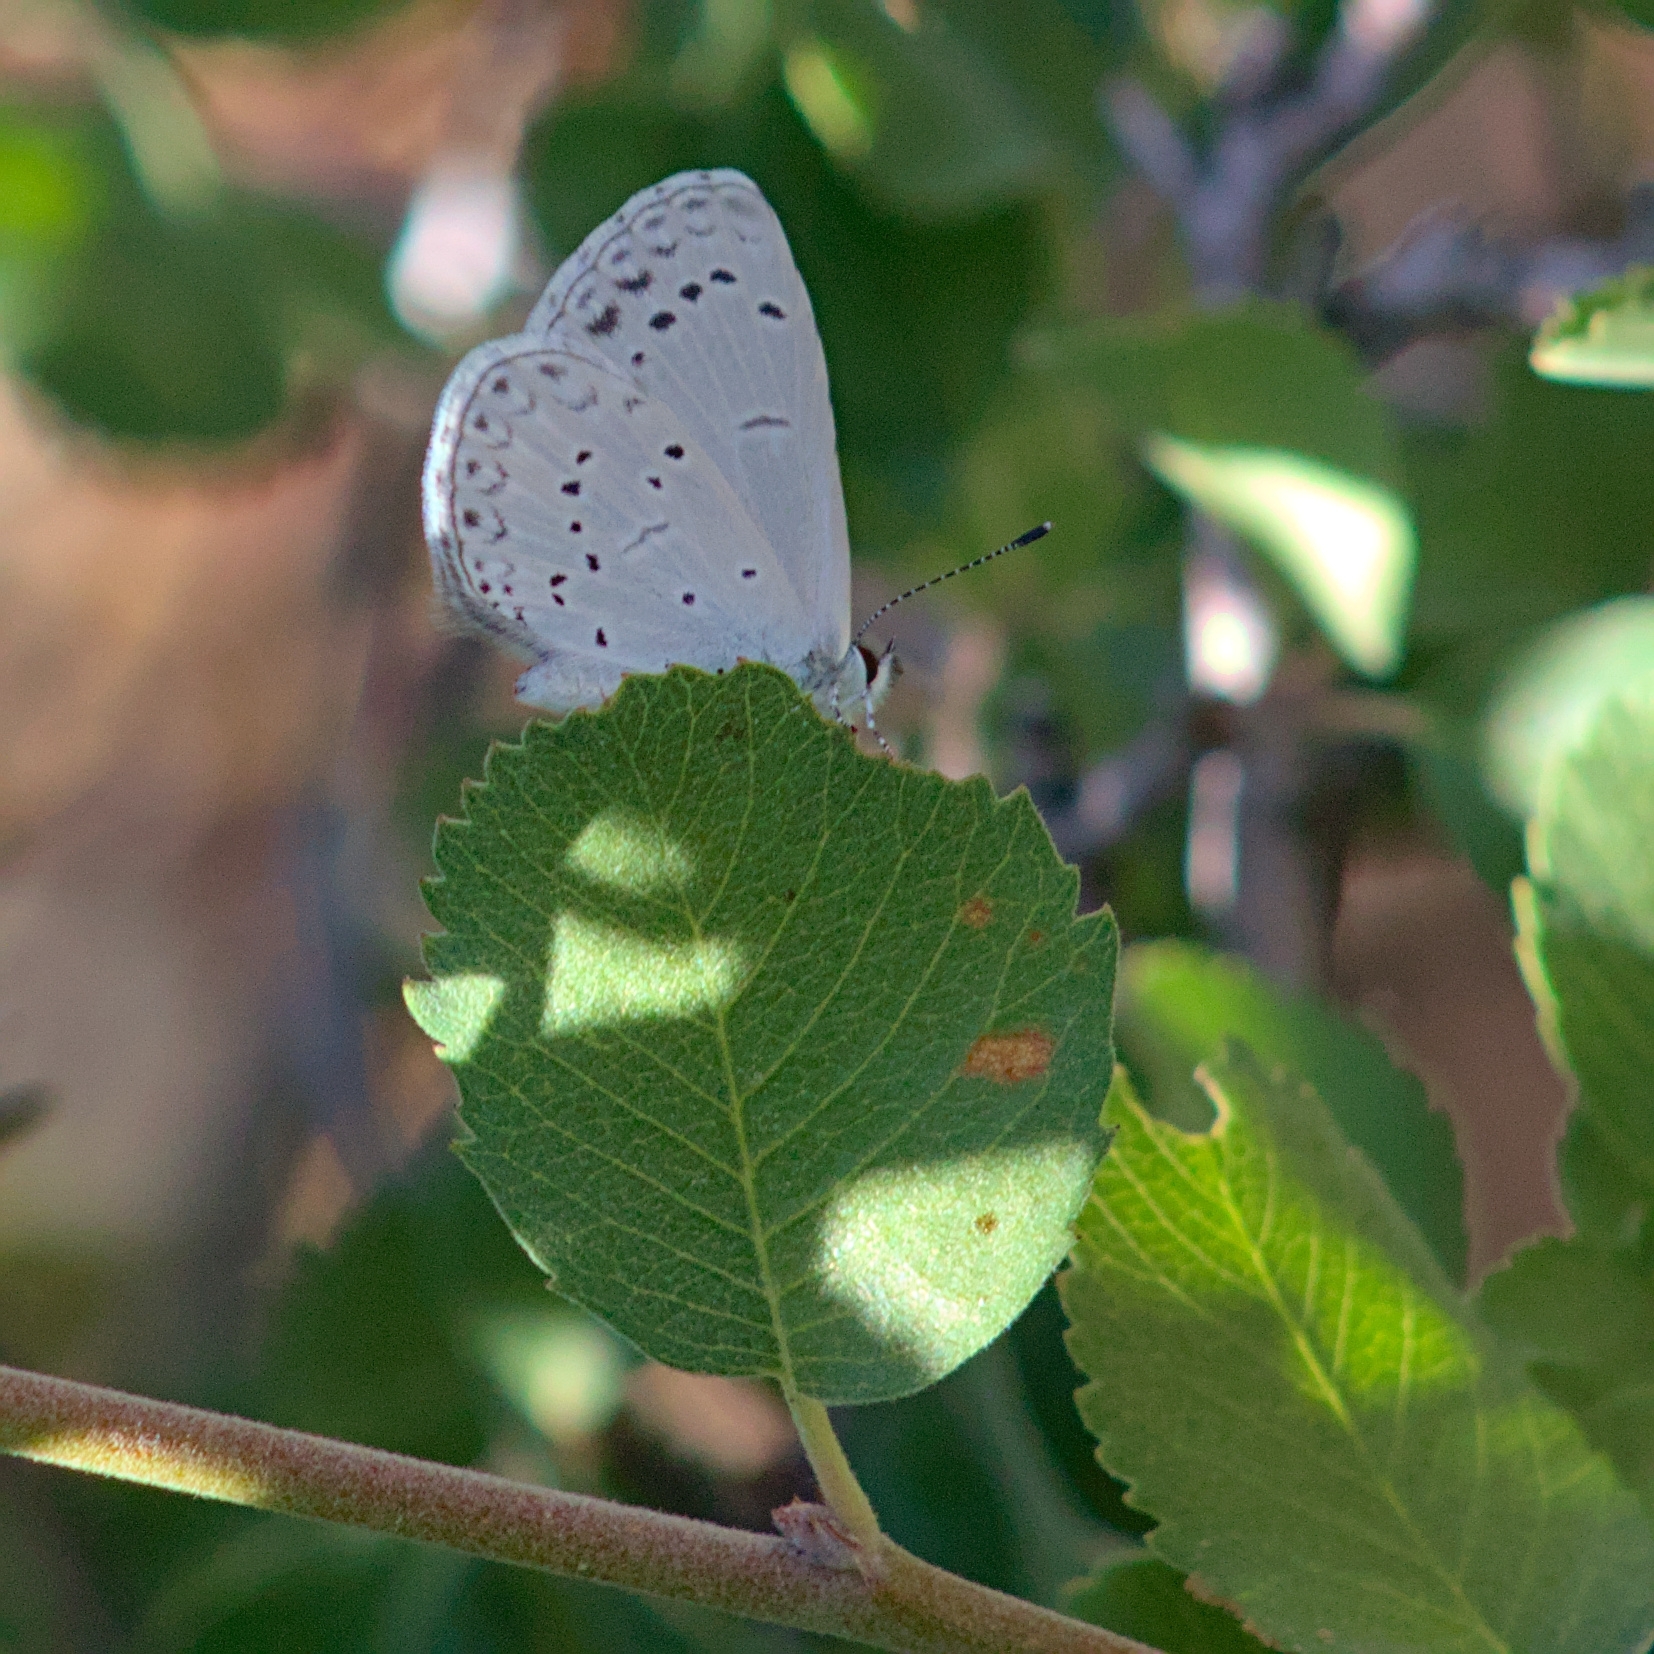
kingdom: Animalia
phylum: Arthropoda
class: Insecta
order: Lepidoptera
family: Lycaenidae
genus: Celastrina
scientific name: Celastrina ladon
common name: Spring azure
